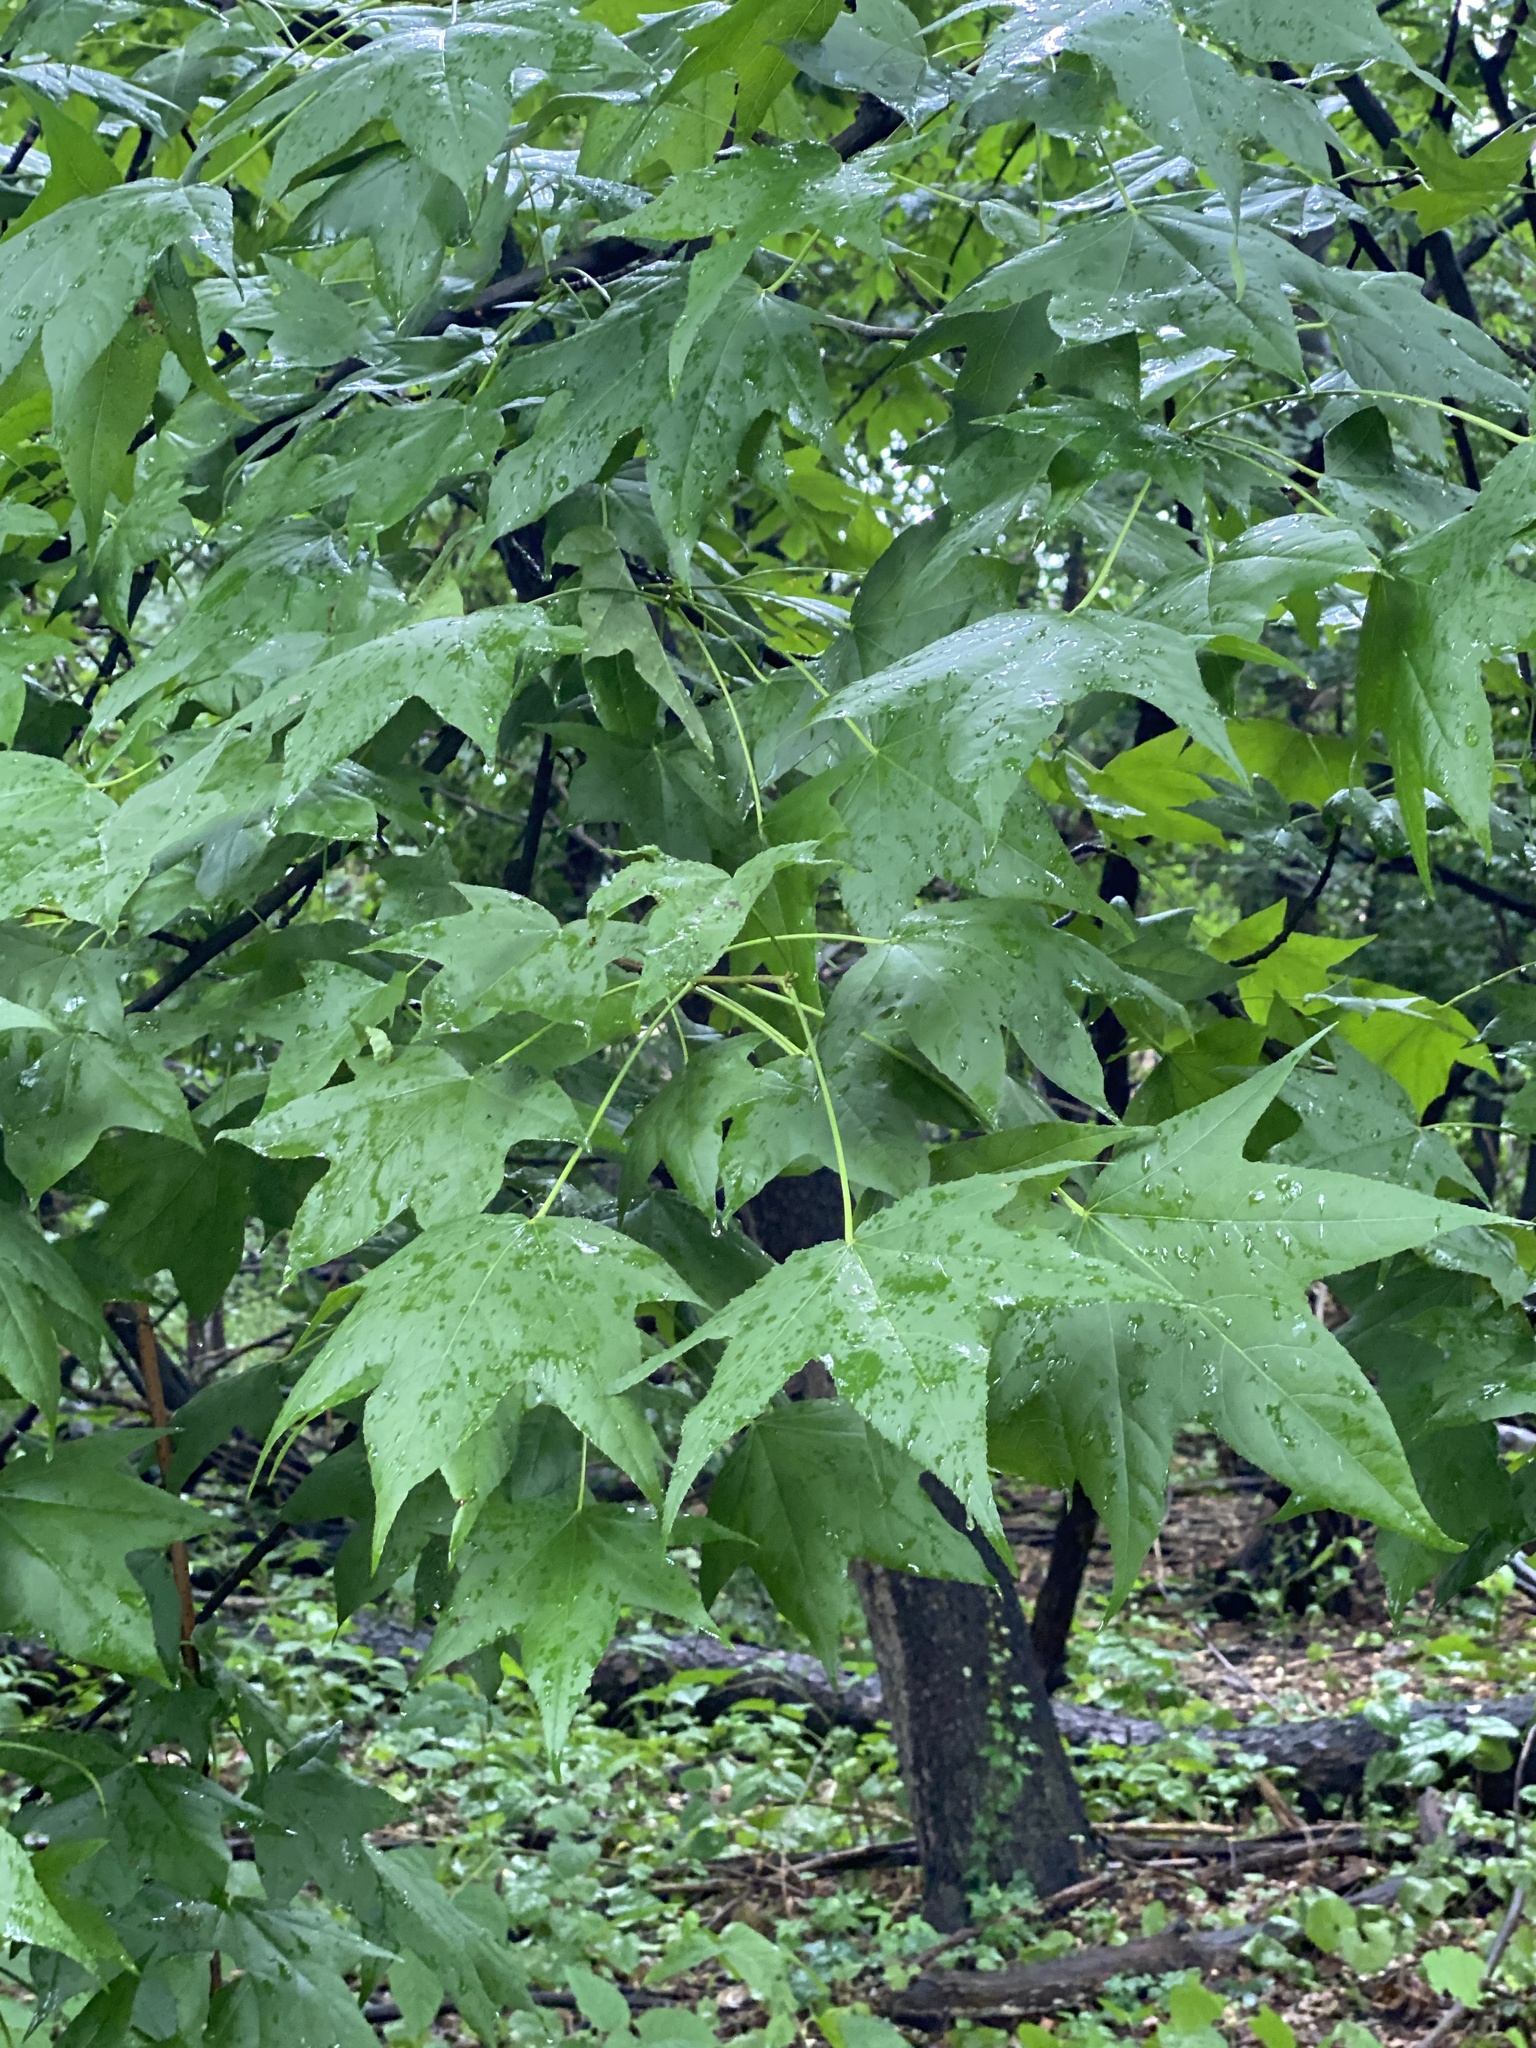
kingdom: Plantae
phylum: Tracheophyta
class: Magnoliopsida
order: Saxifragales
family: Altingiaceae
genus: Liquidambar
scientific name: Liquidambar styraciflua
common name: Sweet gum
